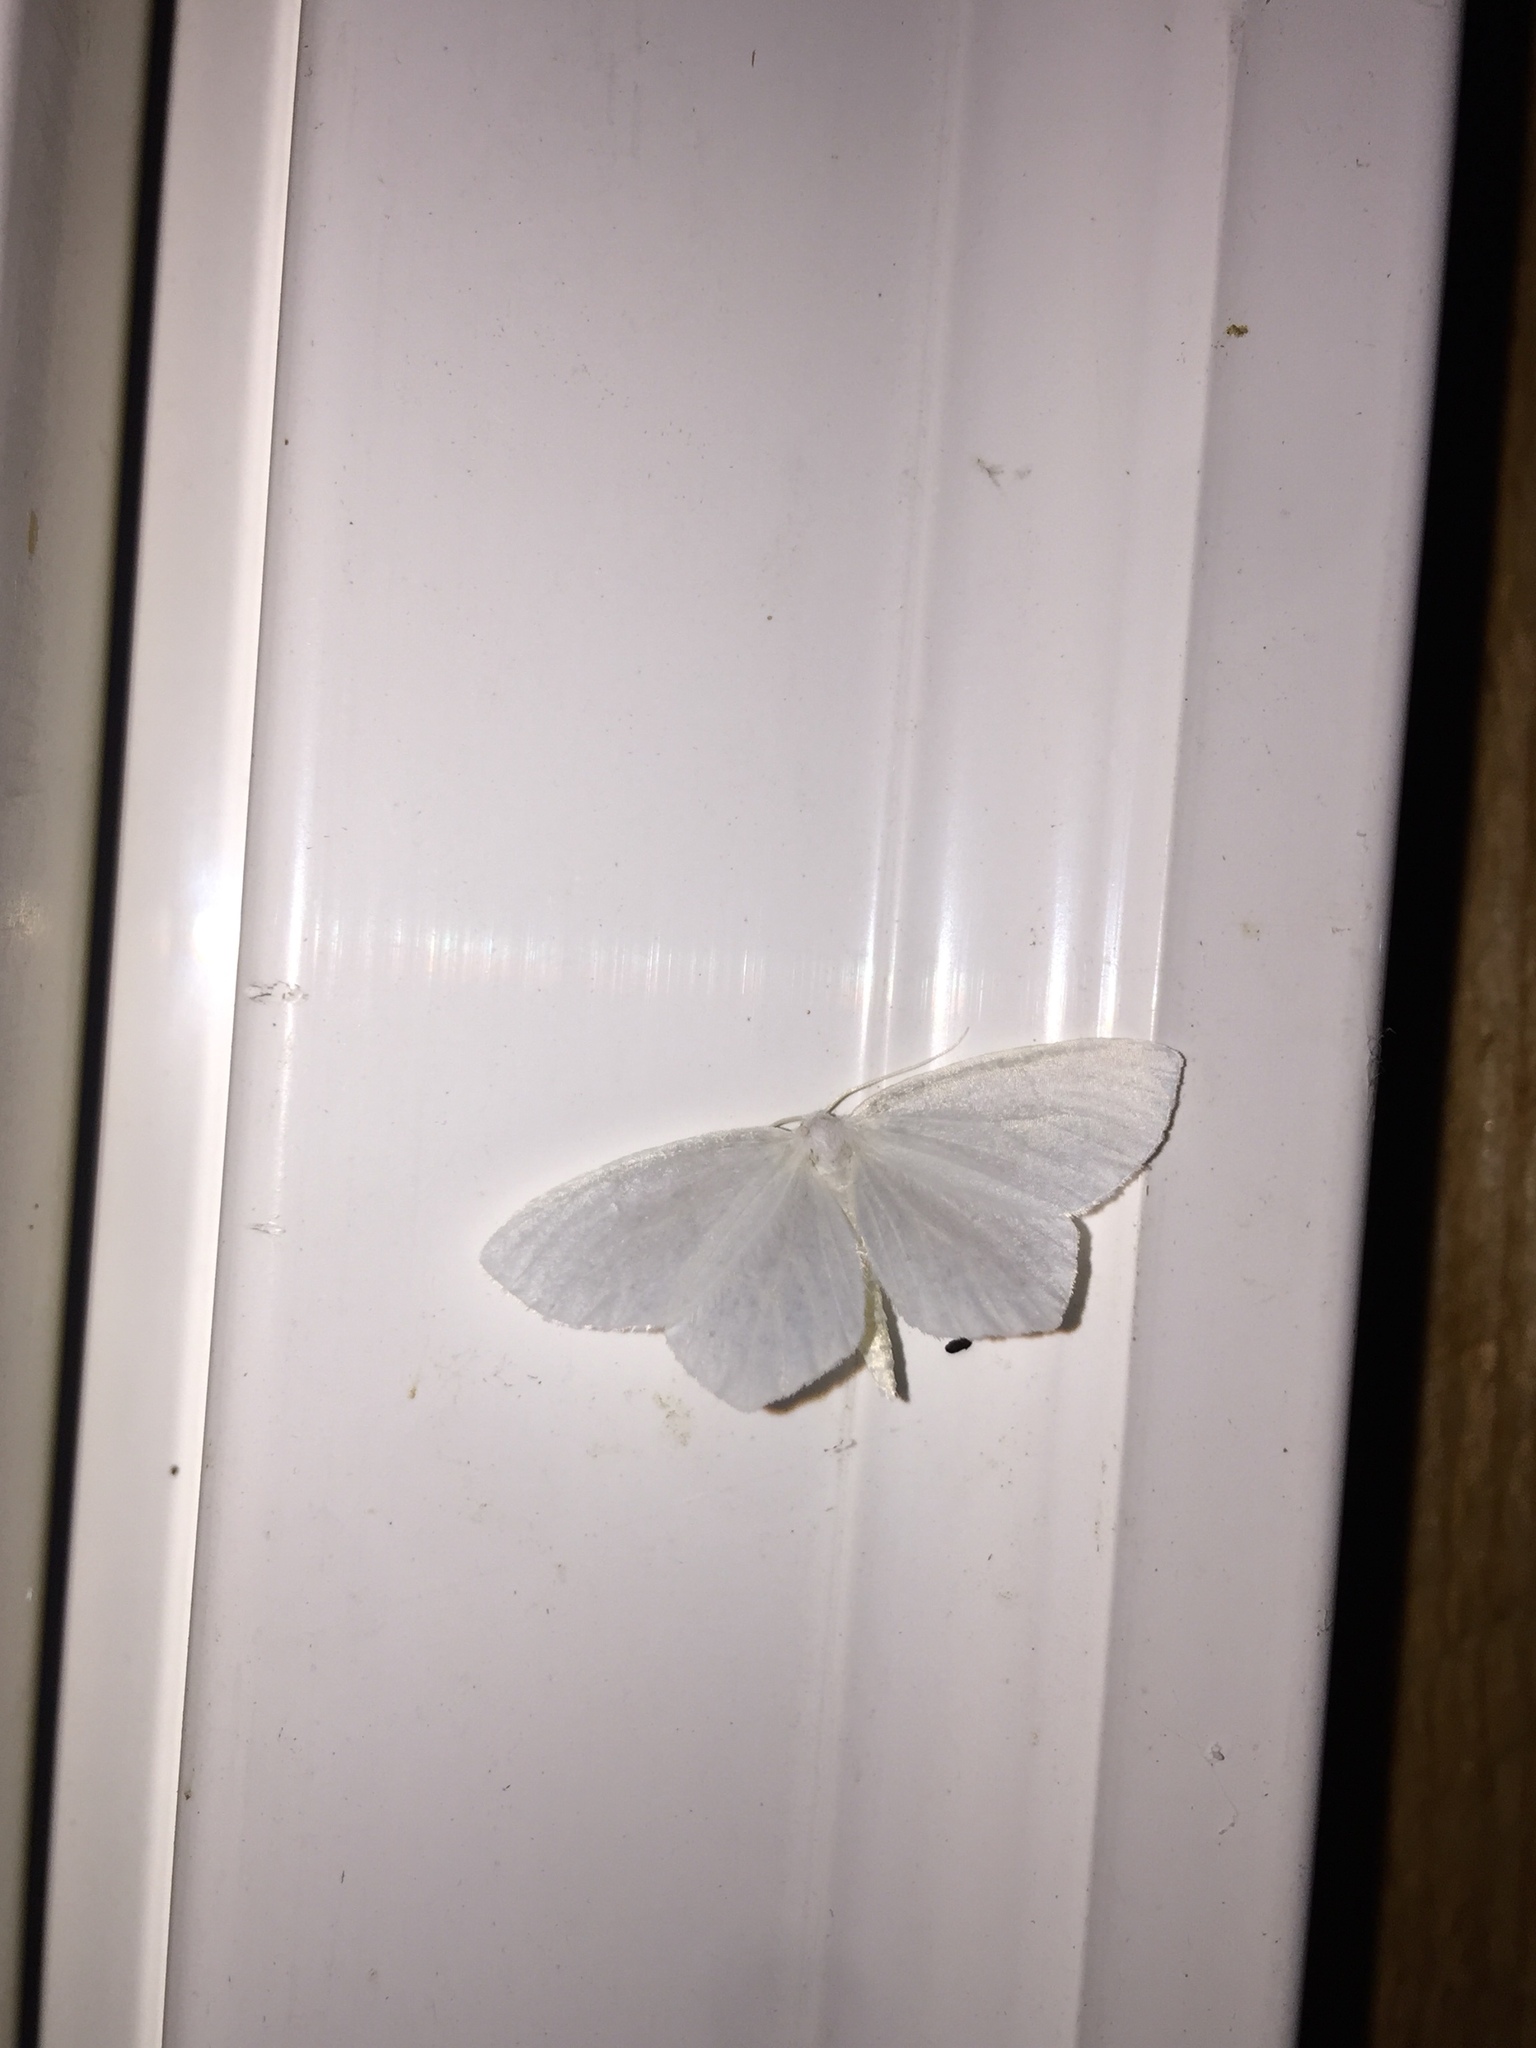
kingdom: Animalia
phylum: Arthropoda
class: Insecta
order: Lepidoptera
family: Geometridae
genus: Eugonobapta
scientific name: Eugonobapta nivosaria
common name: Snowy geometer
